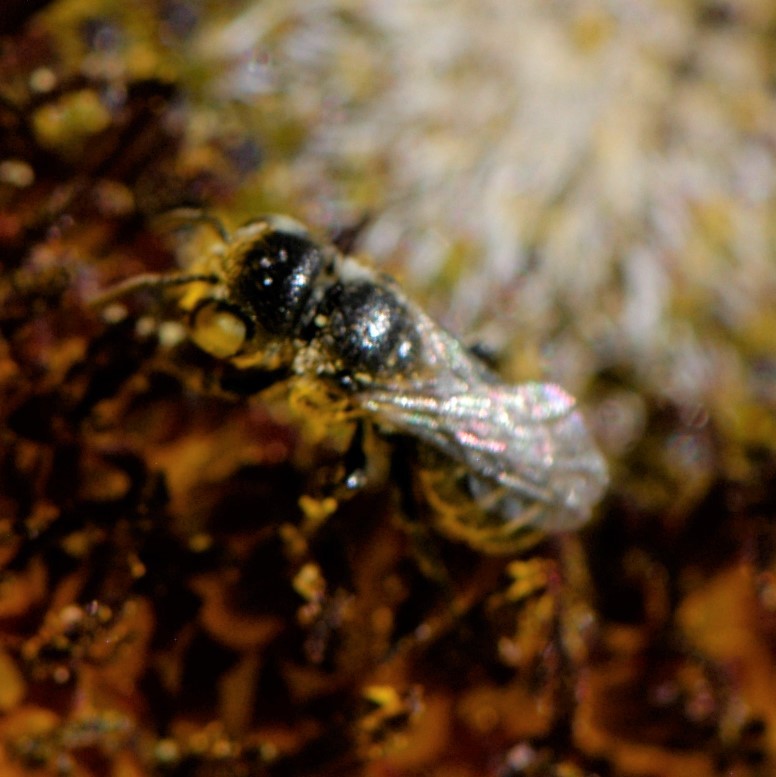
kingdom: Animalia
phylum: Arthropoda
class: Insecta
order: Hymenoptera
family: Megachilidae
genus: Ashmeadiella
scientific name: Ashmeadiella
